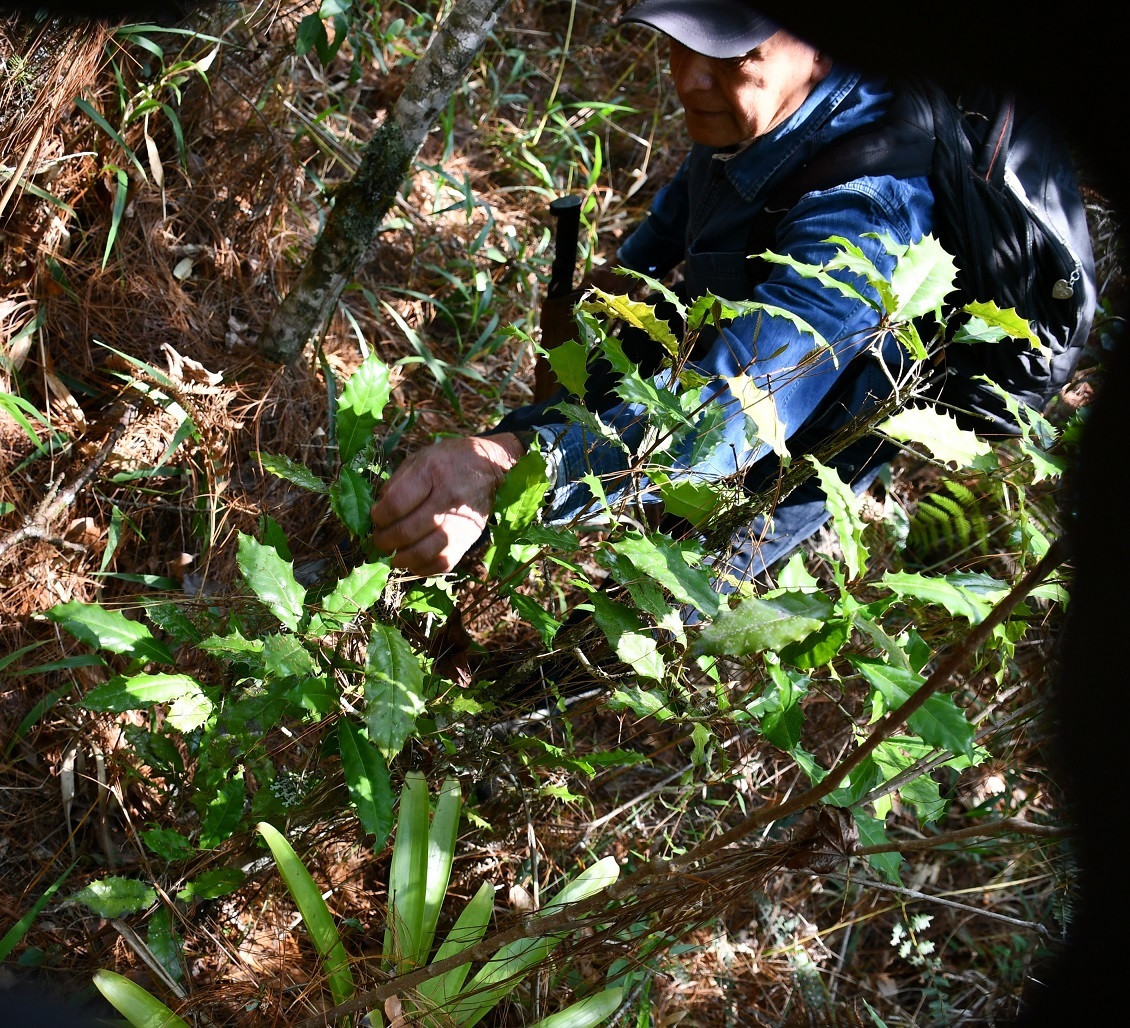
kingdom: Plantae
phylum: Tracheophyta
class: Magnoliopsida
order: Malpighiales
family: Salicaceae
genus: Olmediella
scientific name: Olmediella betschleriana
